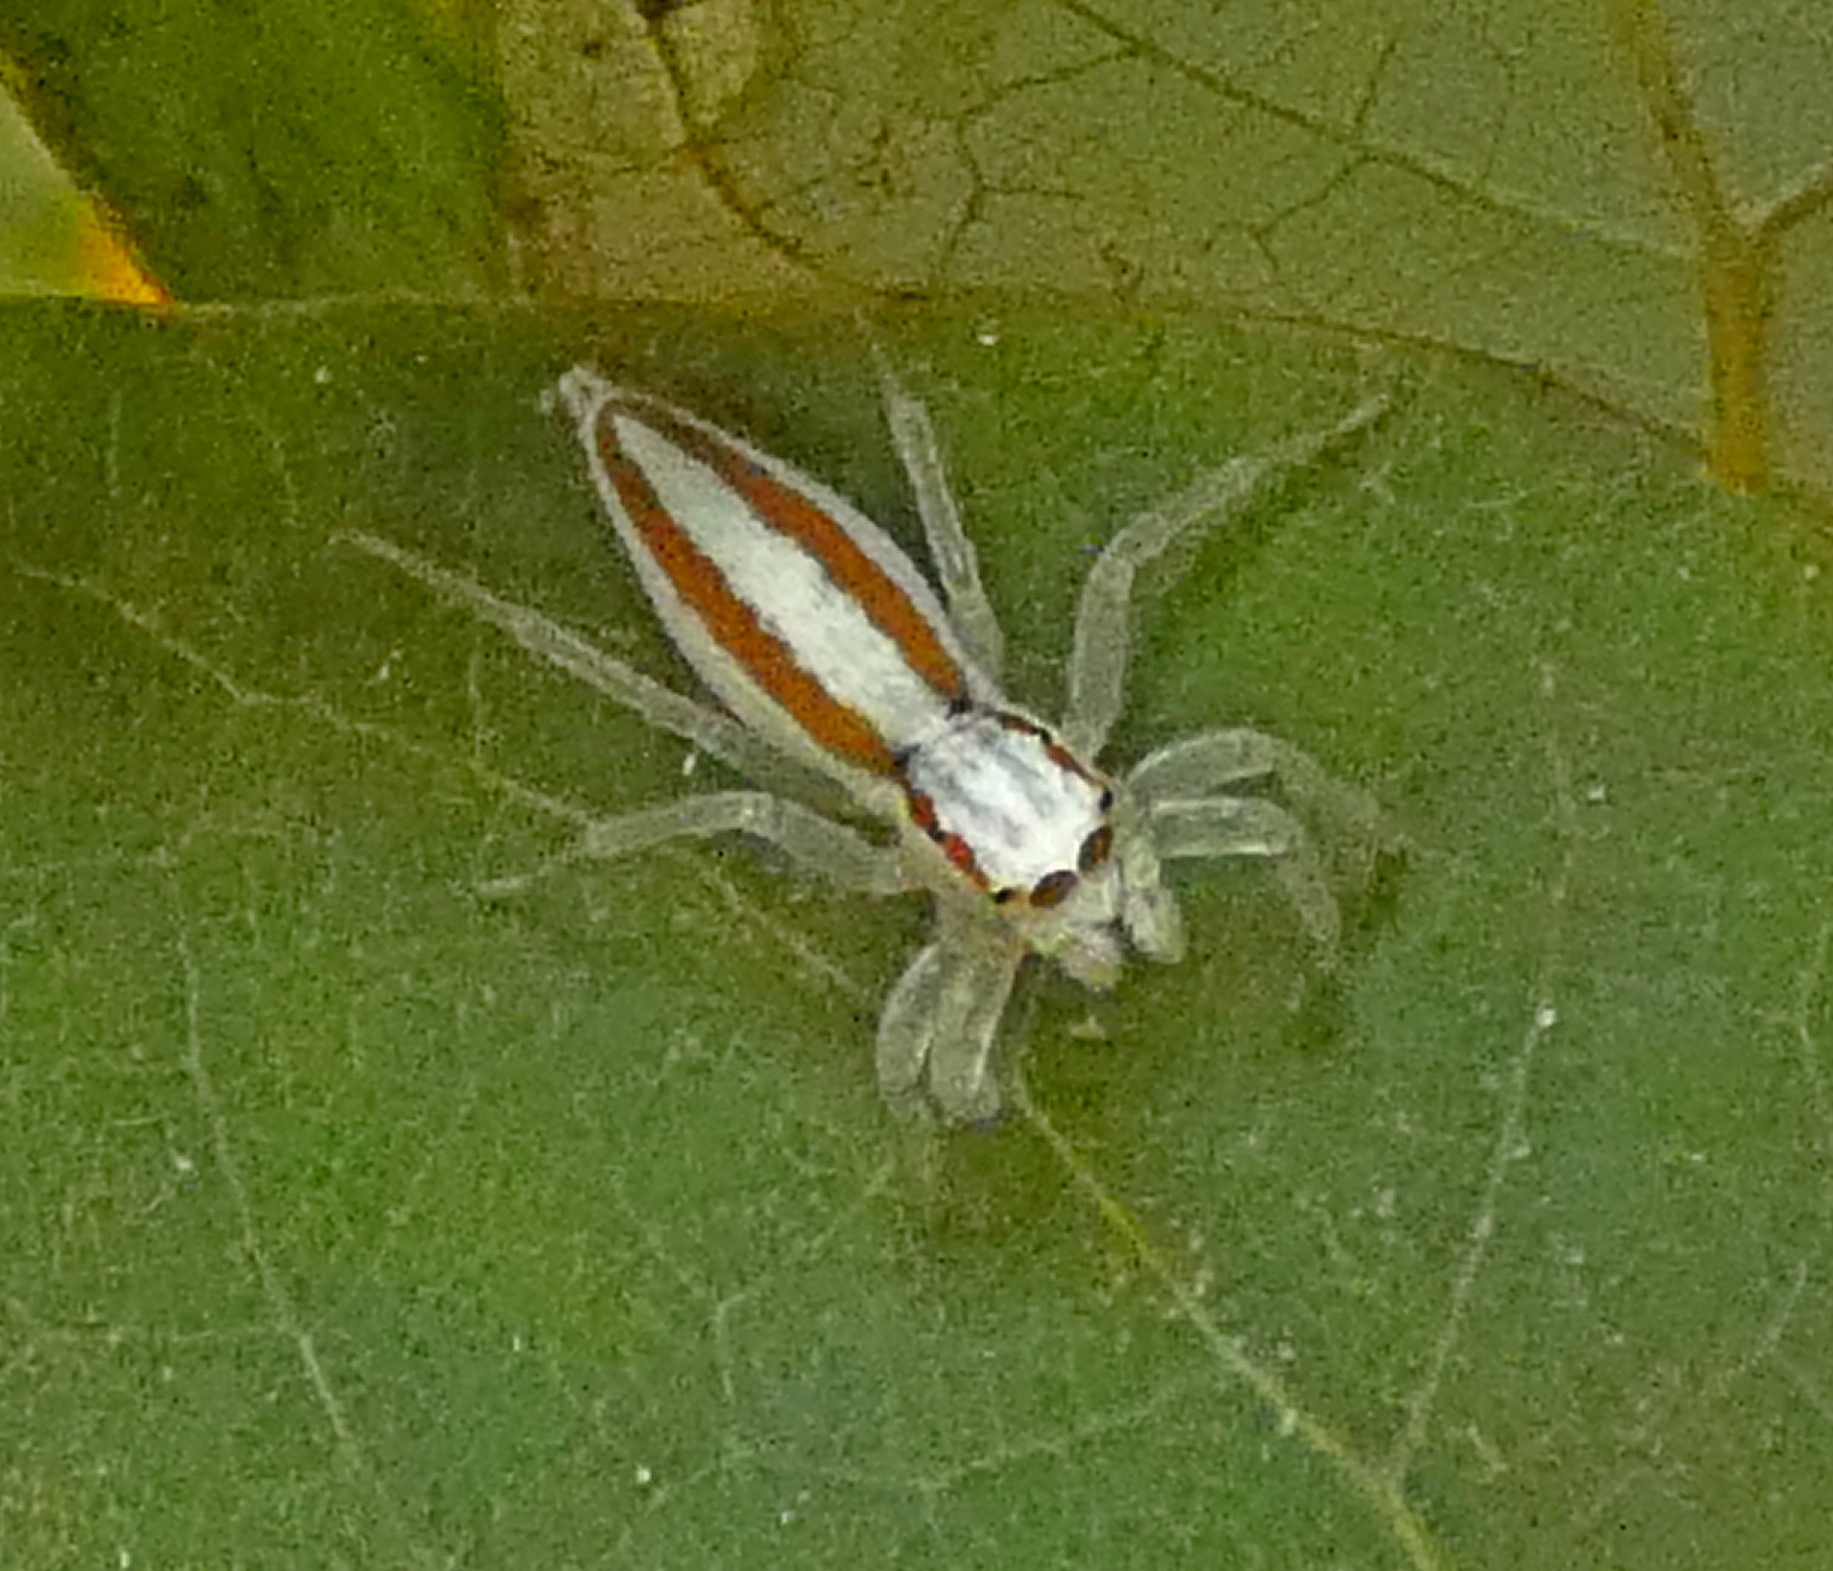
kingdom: Animalia
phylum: Arthropoda
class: Arachnida
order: Araneae
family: Salticidae
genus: Chira
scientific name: Chira trivittata
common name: Jumping spiders
